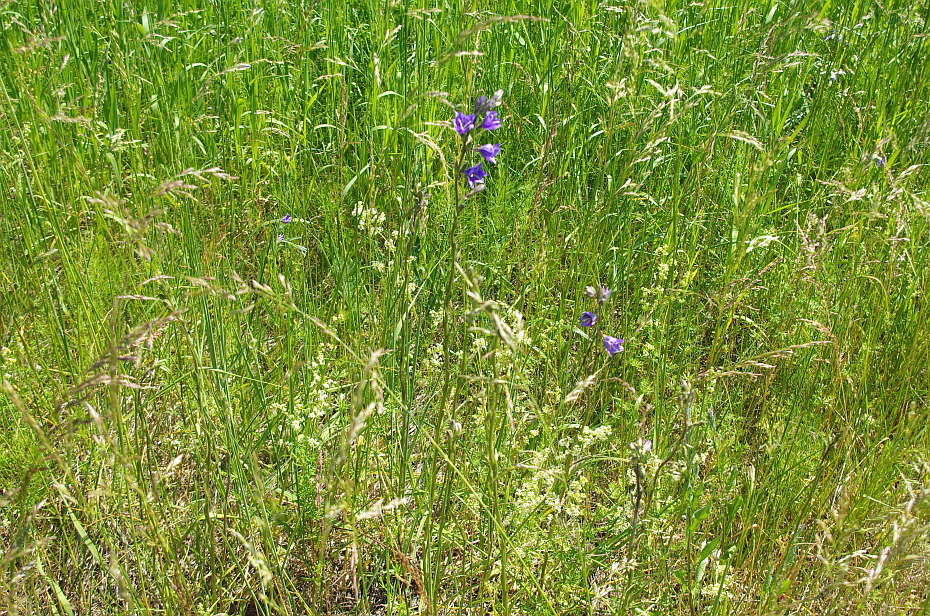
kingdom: Plantae
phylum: Tracheophyta
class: Magnoliopsida
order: Asterales
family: Campanulaceae
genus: Campanula
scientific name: Campanula persicifolia
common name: Peach-leaved bellflower
